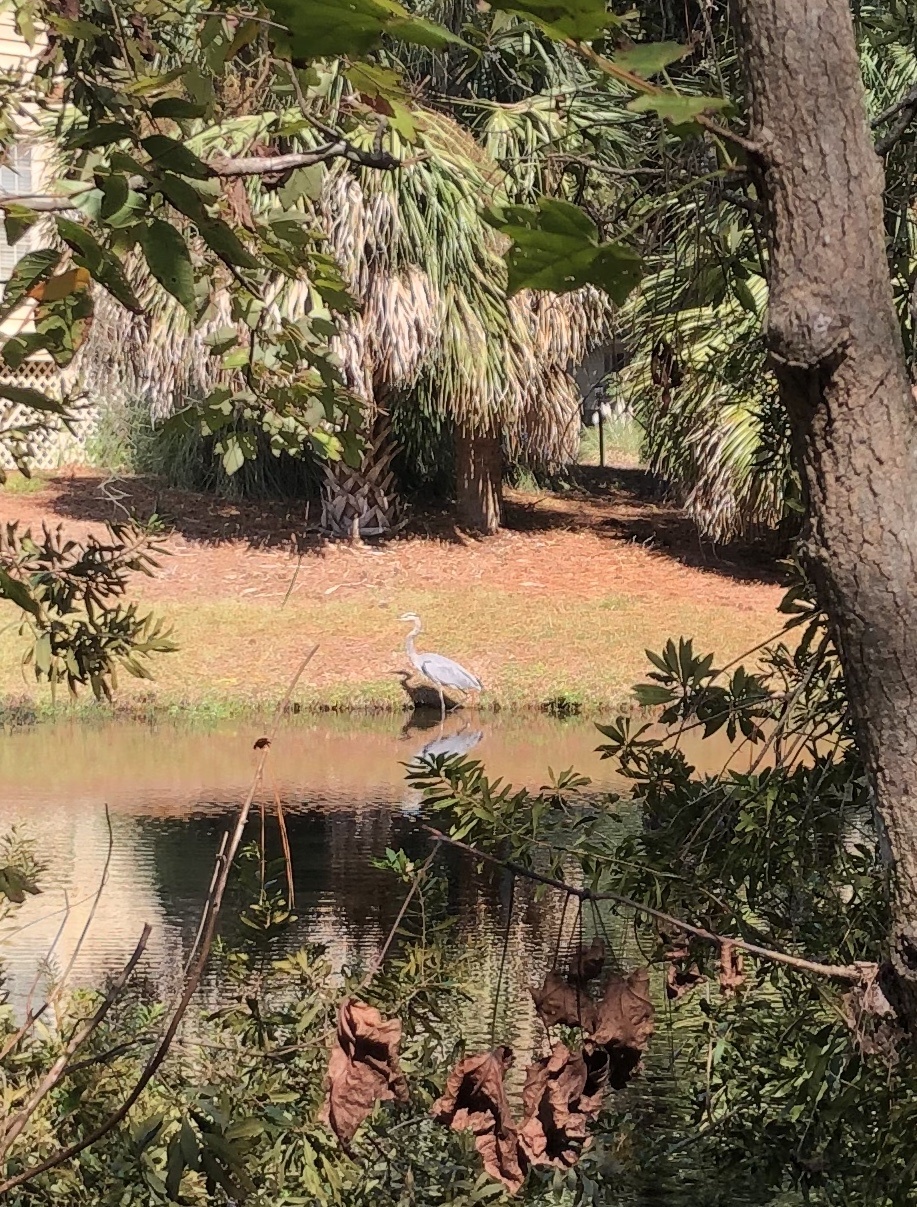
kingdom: Animalia
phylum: Chordata
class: Aves
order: Pelecaniformes
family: Ardeidae
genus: Ardea
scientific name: Ardea herodias
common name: Great blue heron
